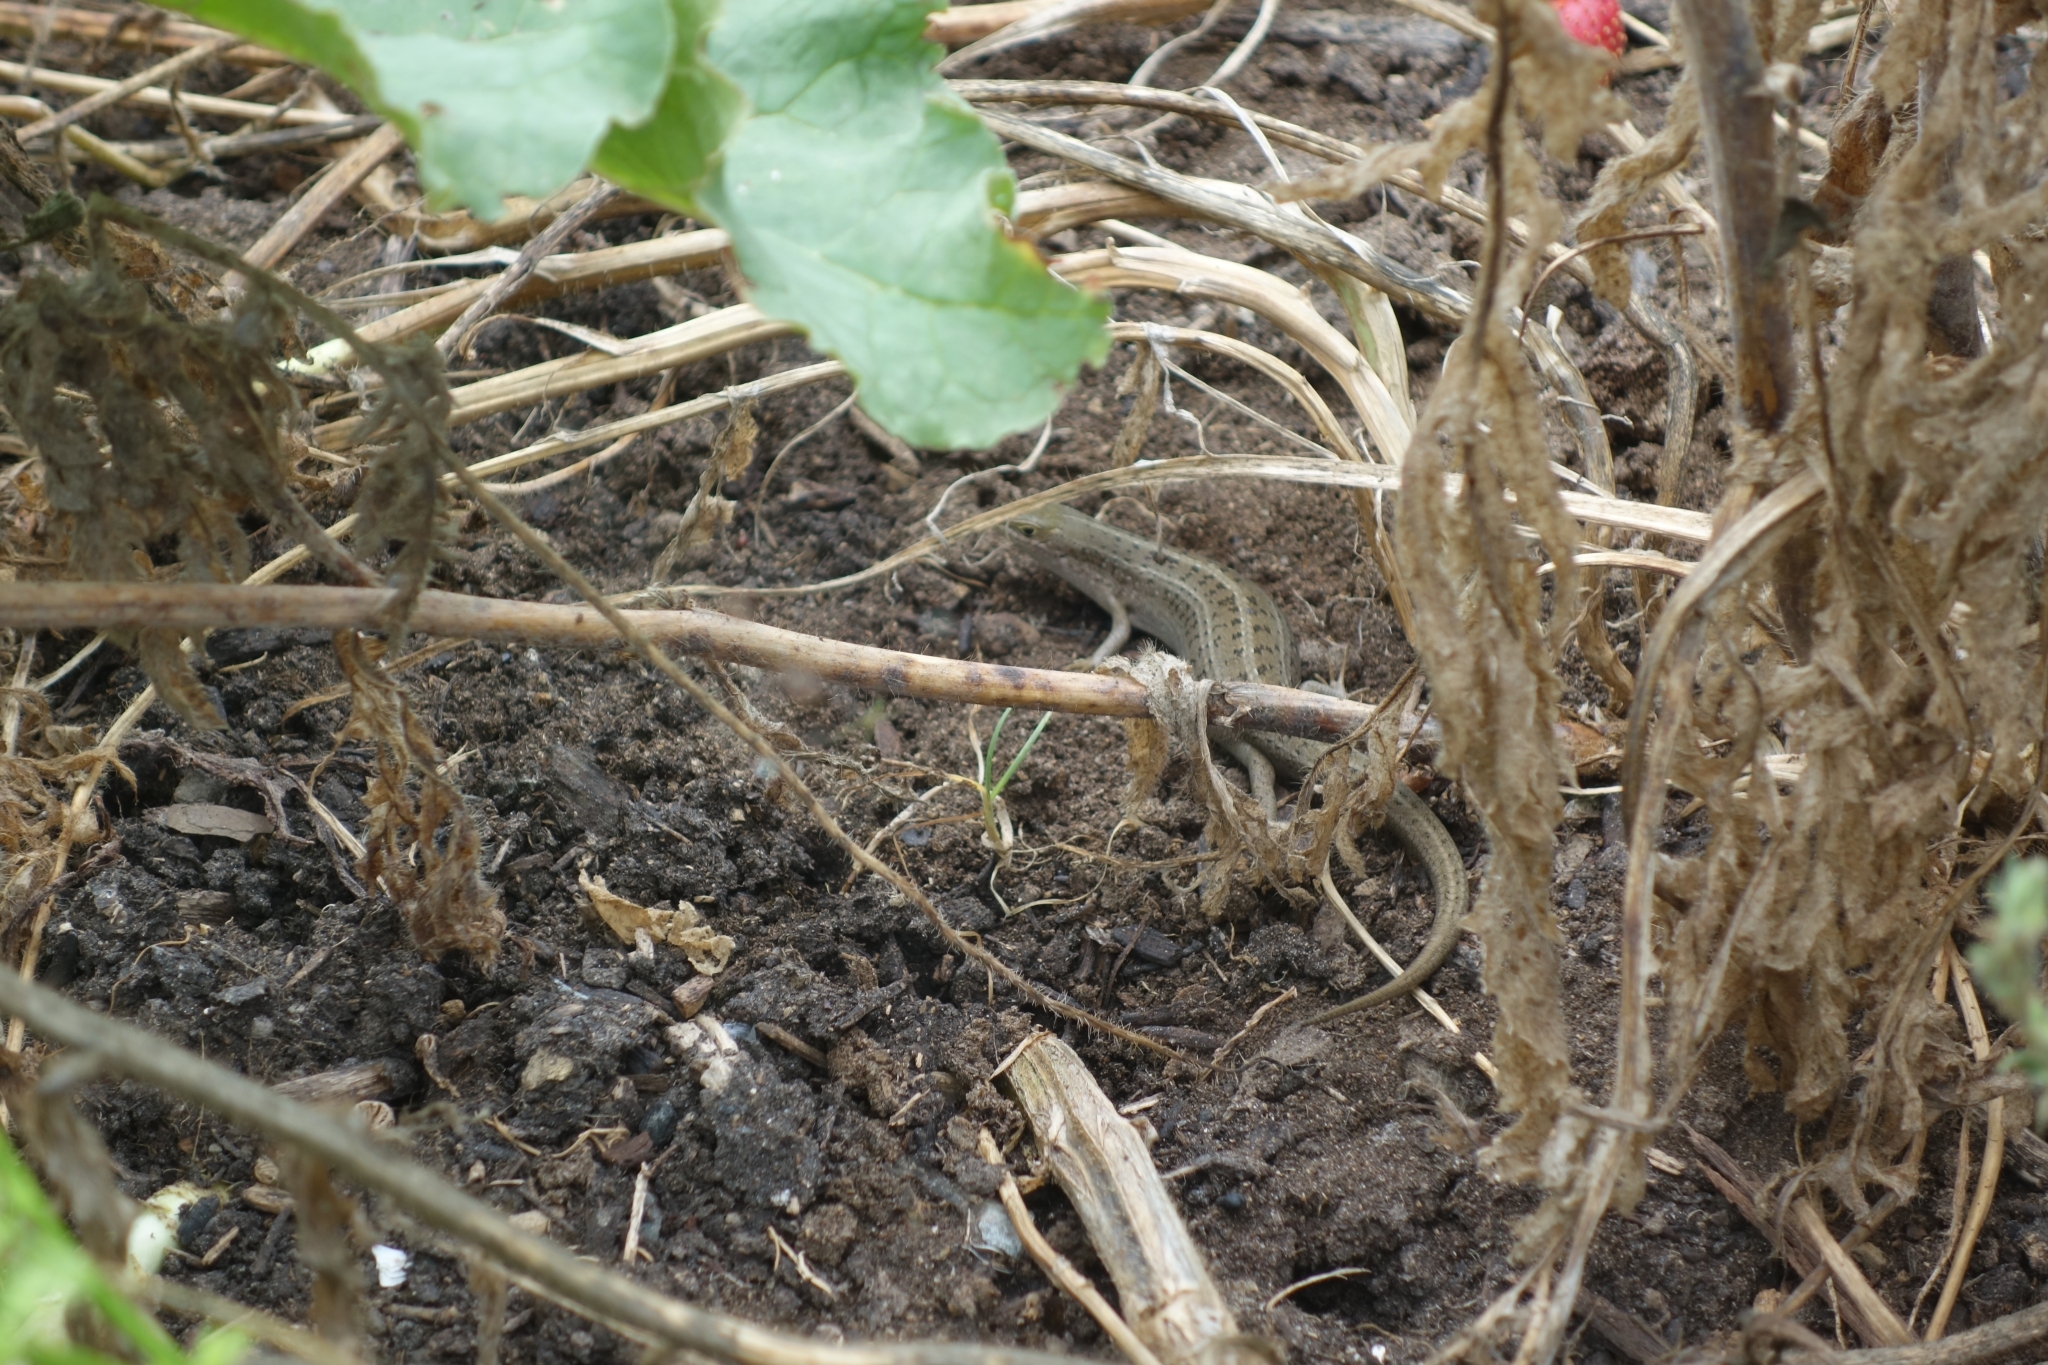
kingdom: Animalia
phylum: Chordata
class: Squamata
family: Scincidae
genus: Trachylepis
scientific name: Trachylepis capensis
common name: Cape skink
